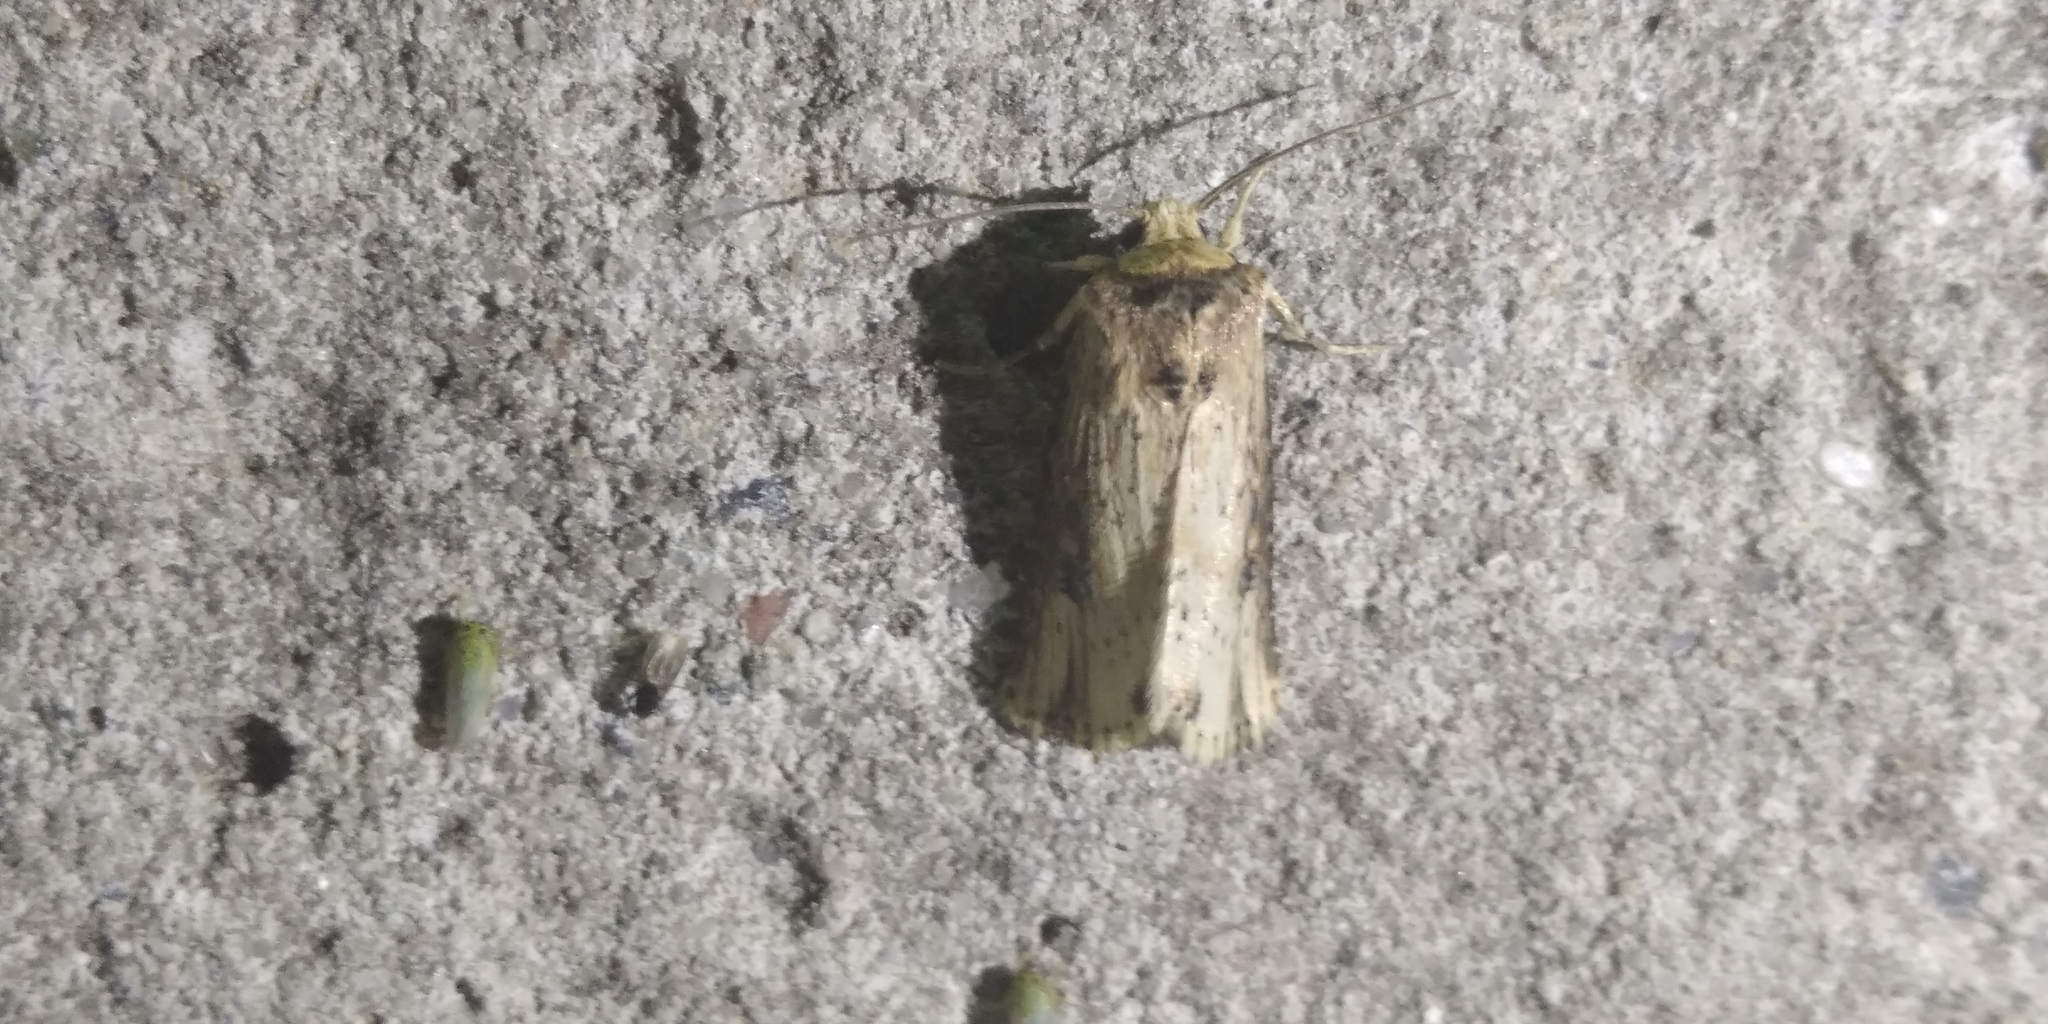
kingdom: Animalia
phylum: Arthropoda
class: Insecta
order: Lepidoptera
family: Noctuidae
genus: Axylia
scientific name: Axylia putris
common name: Flame
